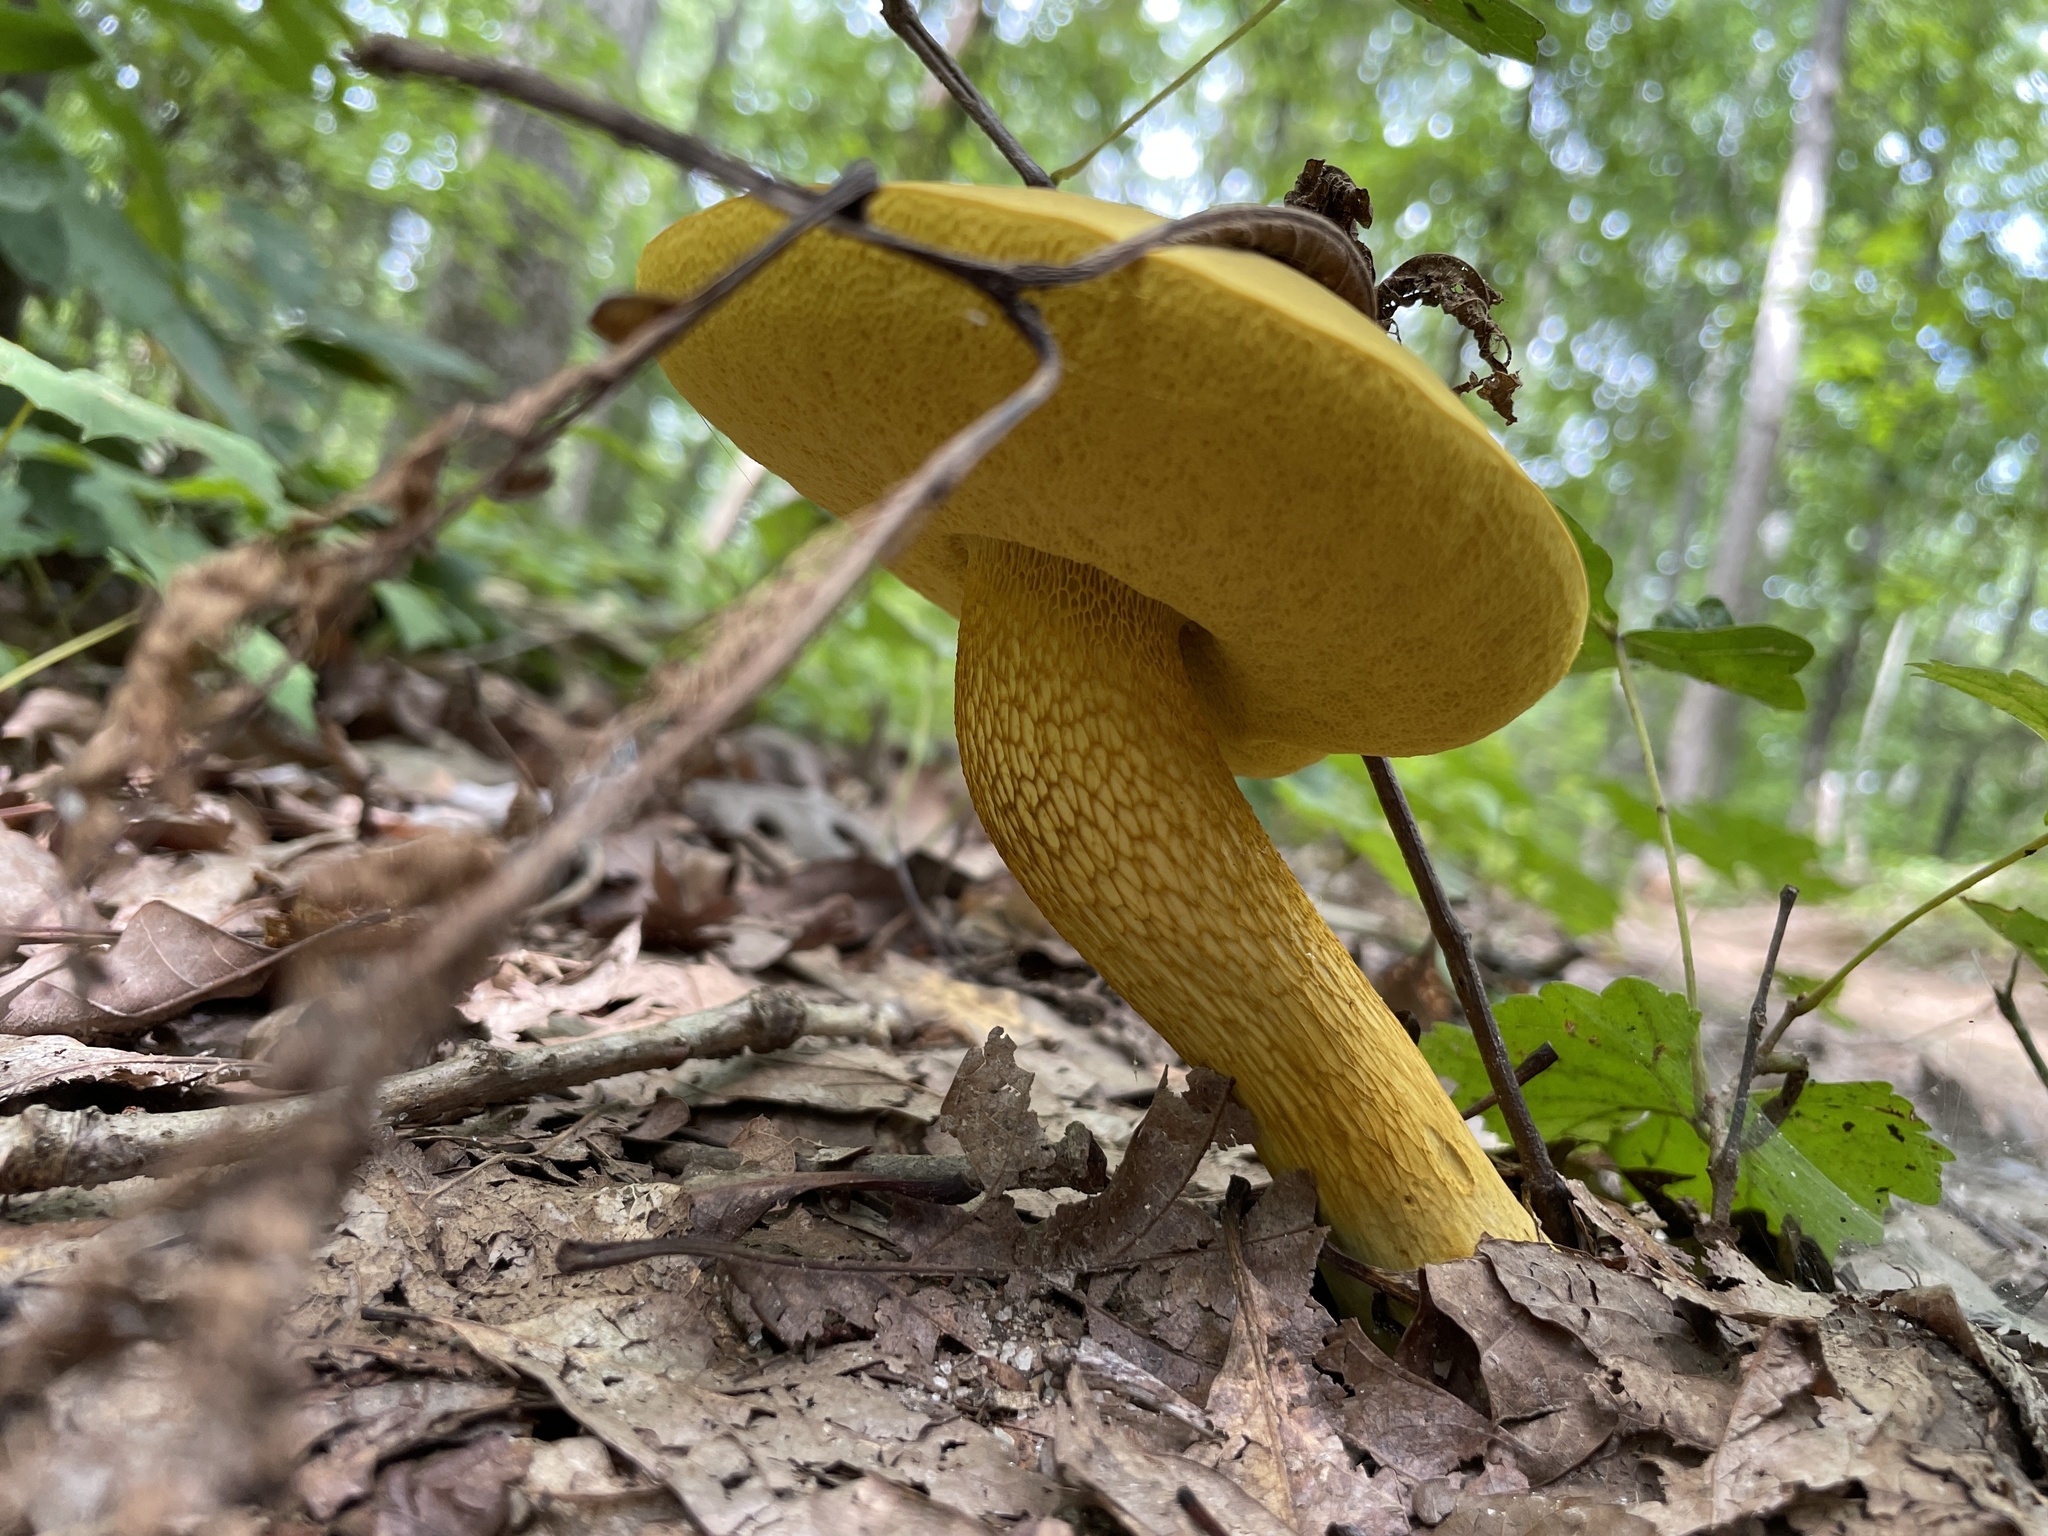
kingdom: Fungi
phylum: Basidiomycota
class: Agaricomycetes
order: Boletales
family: Boletaceae
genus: Retiboletus
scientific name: Retiboletus ornatipes
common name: Ornate-stalked bolete
